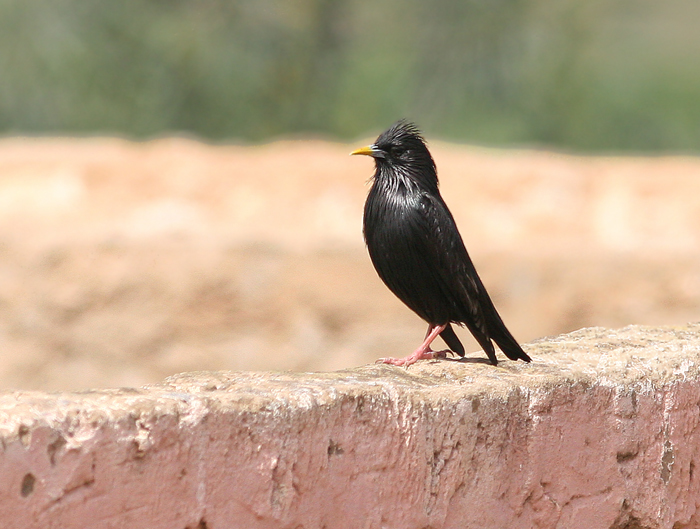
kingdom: Animalia
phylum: Chordata
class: Aves
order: Passeriformes
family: Sturnidae
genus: Sturnus
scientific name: Sturnus unicolor
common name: Spotless starling
